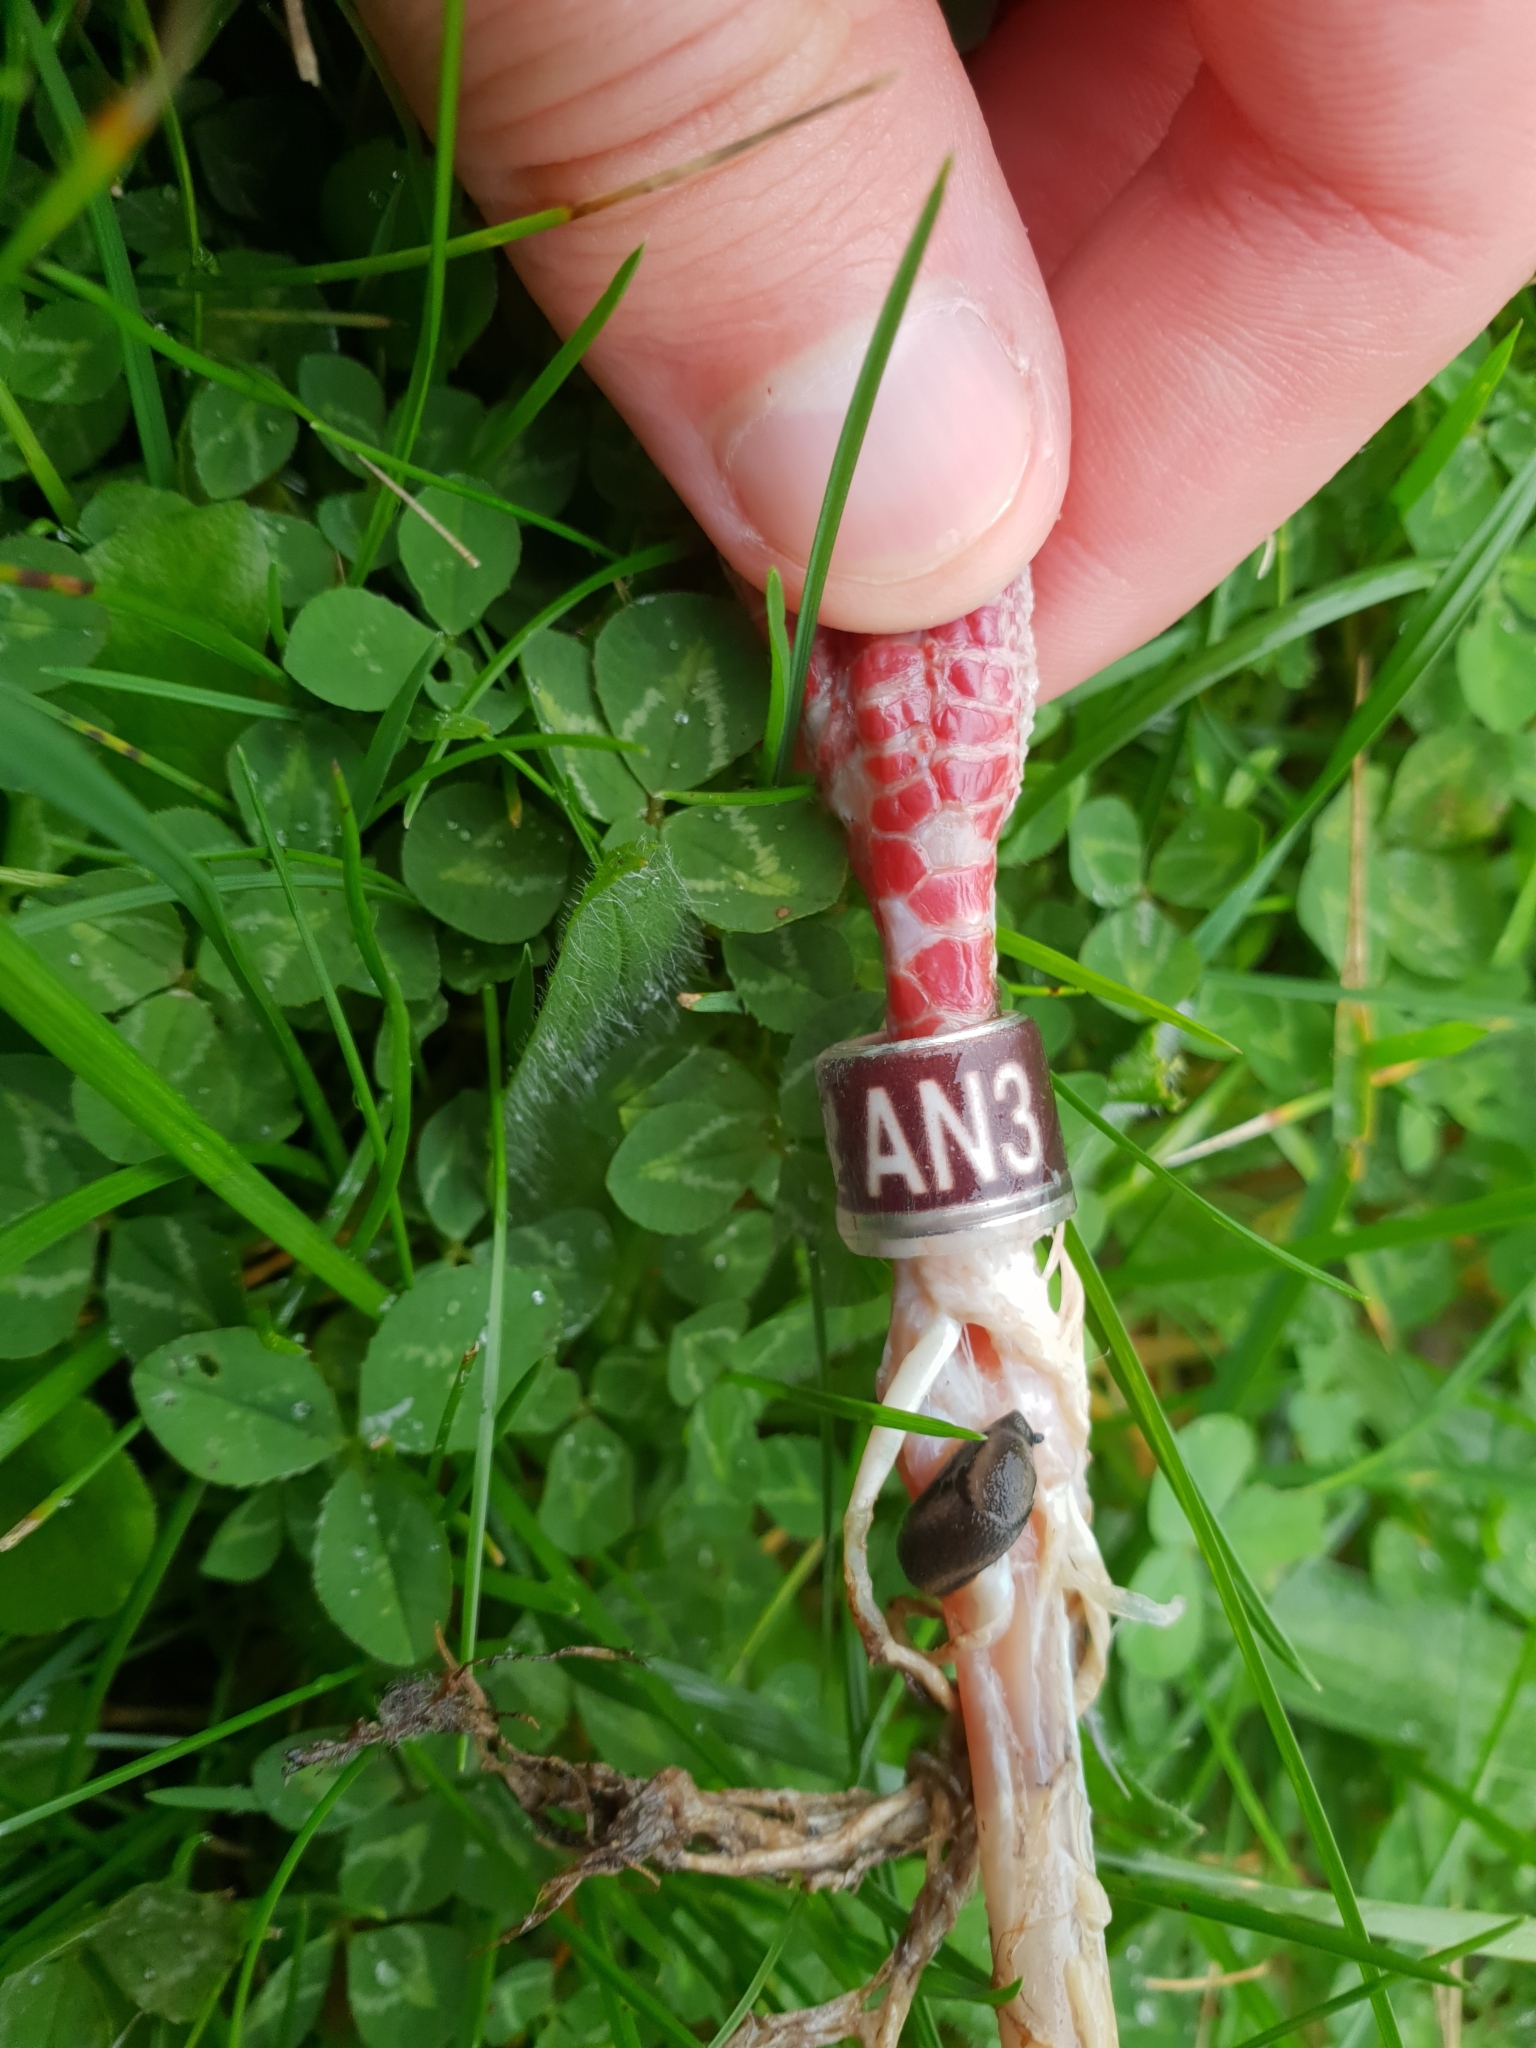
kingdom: Animalia
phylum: Chordata
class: Aves
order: Columbiformes
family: Columbidae
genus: Columba
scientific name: Columba livia
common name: Rock pigeon
